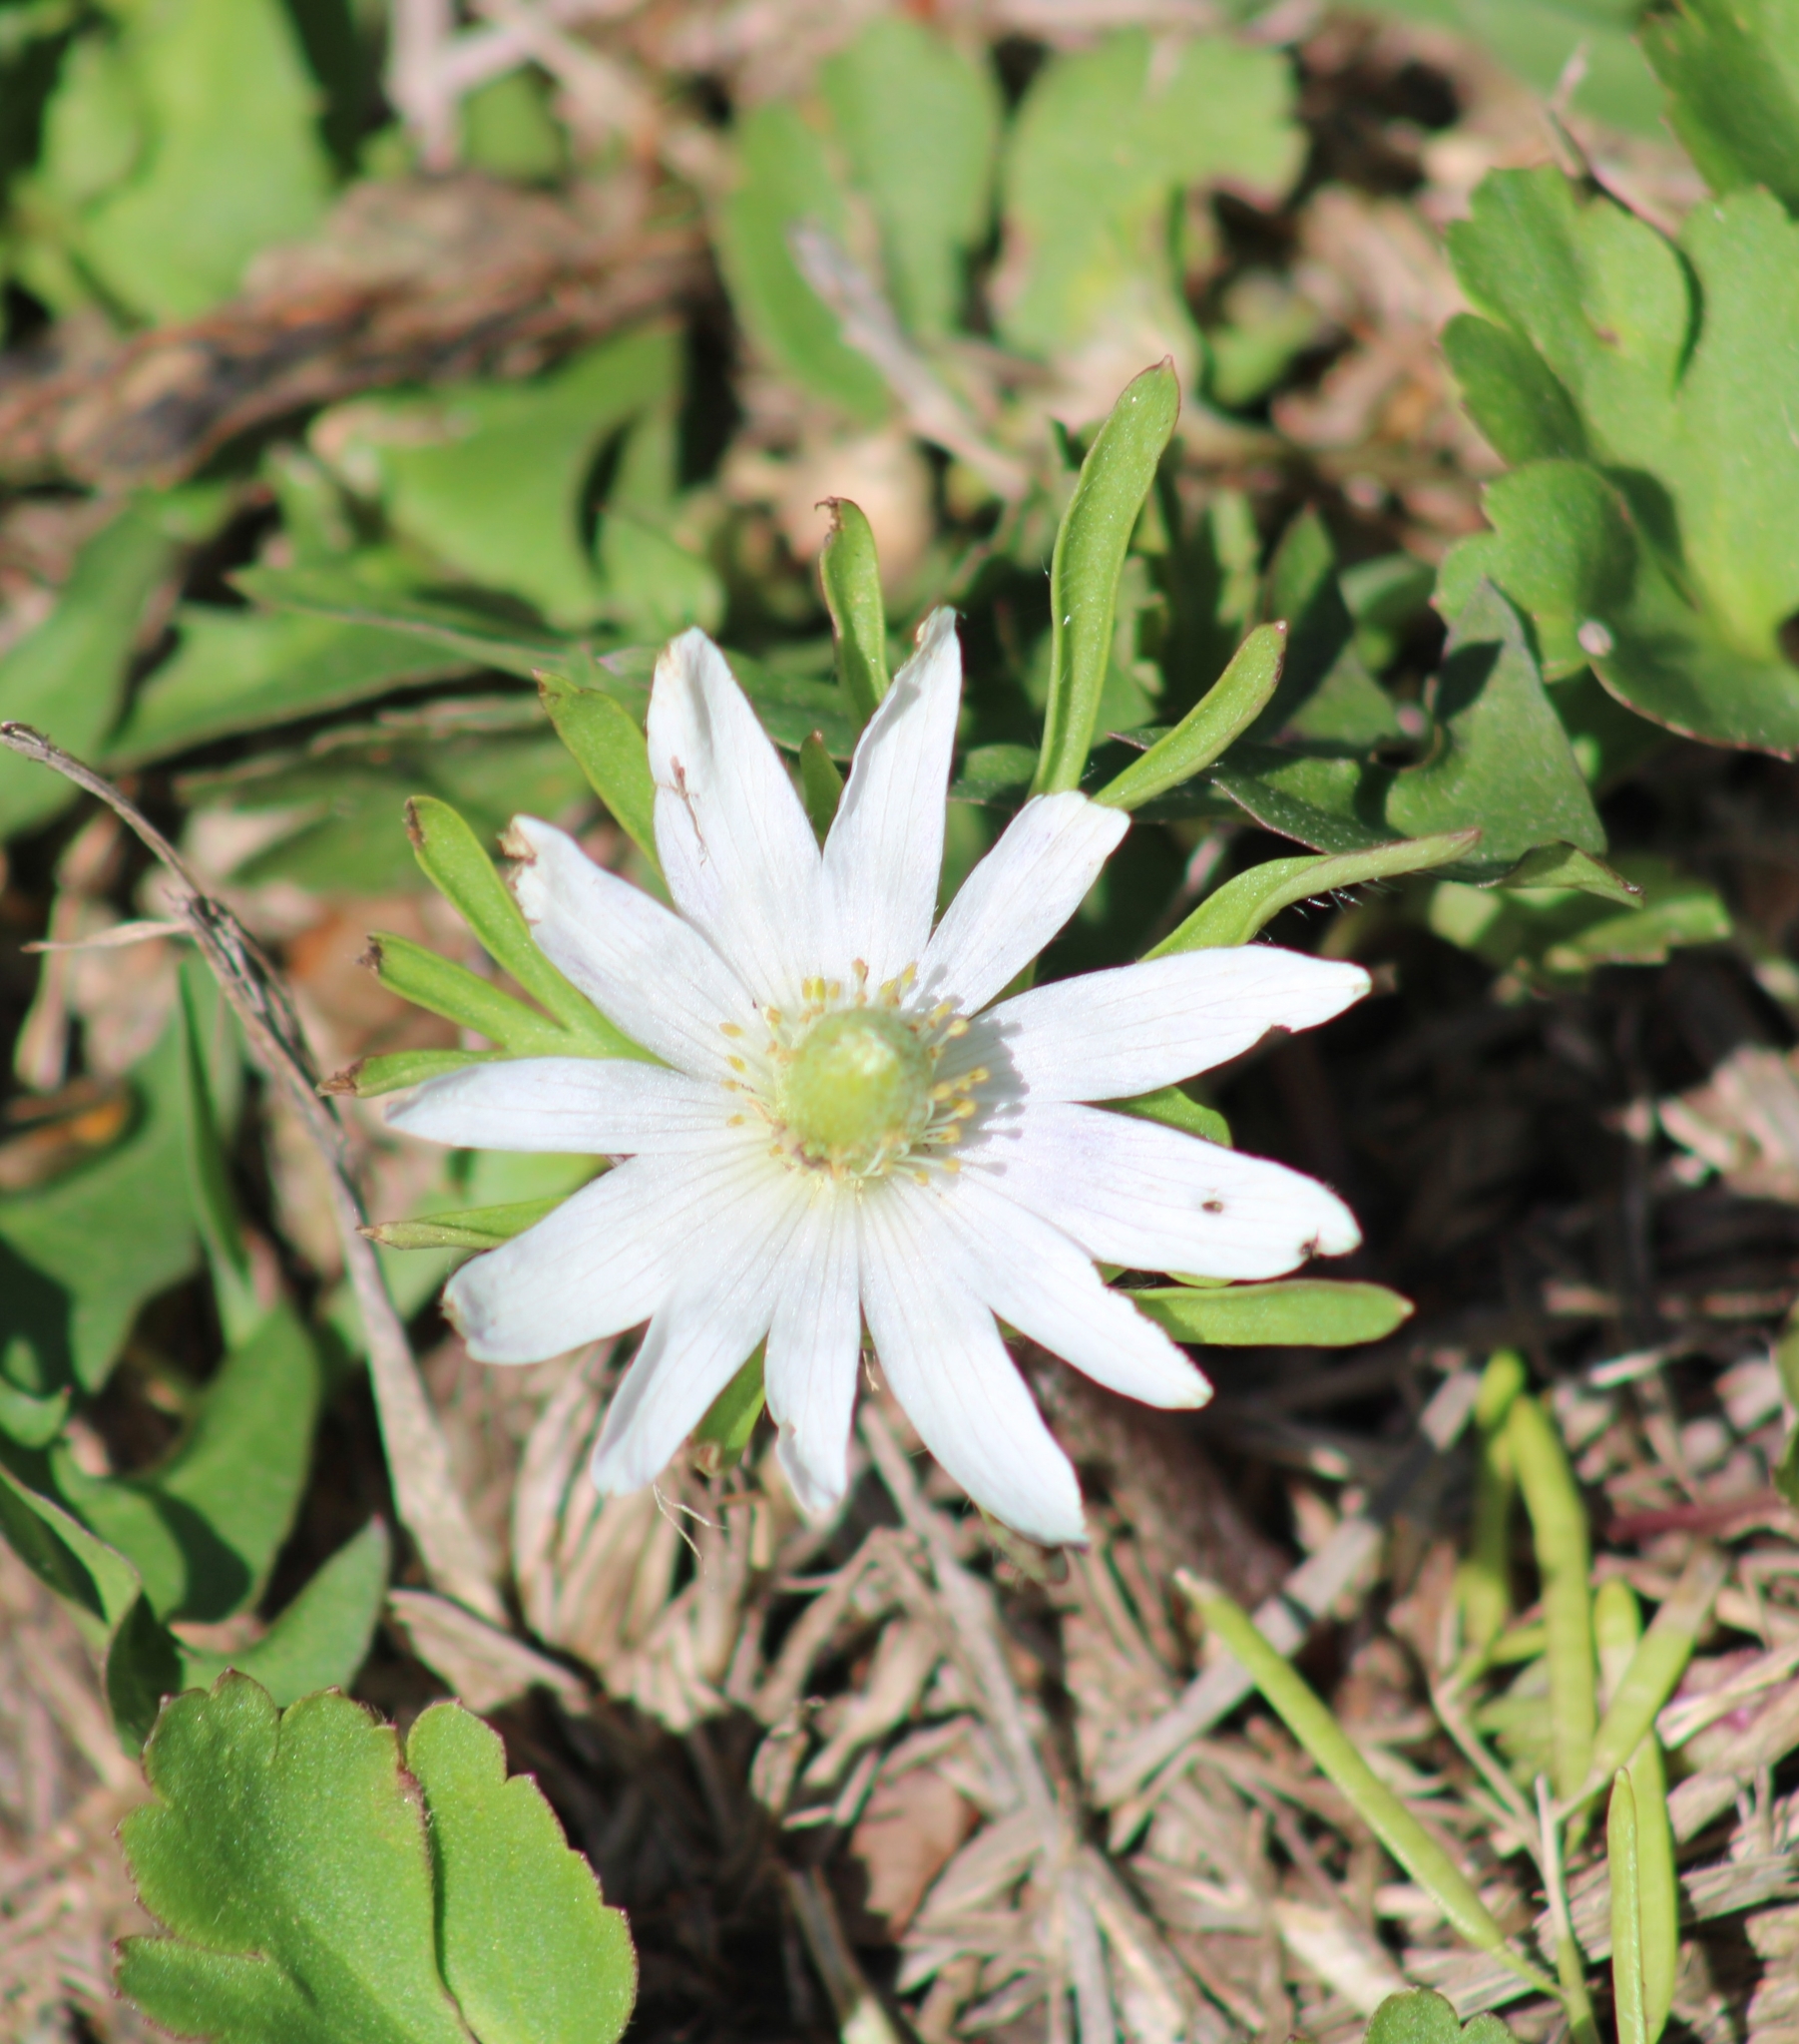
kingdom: Plantae
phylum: Tracheophyta
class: Magnoliopsida
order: Ranunculales
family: Ranunculaceae
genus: Anemone
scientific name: Anemone berlandieri
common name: Ten-petal anemone
